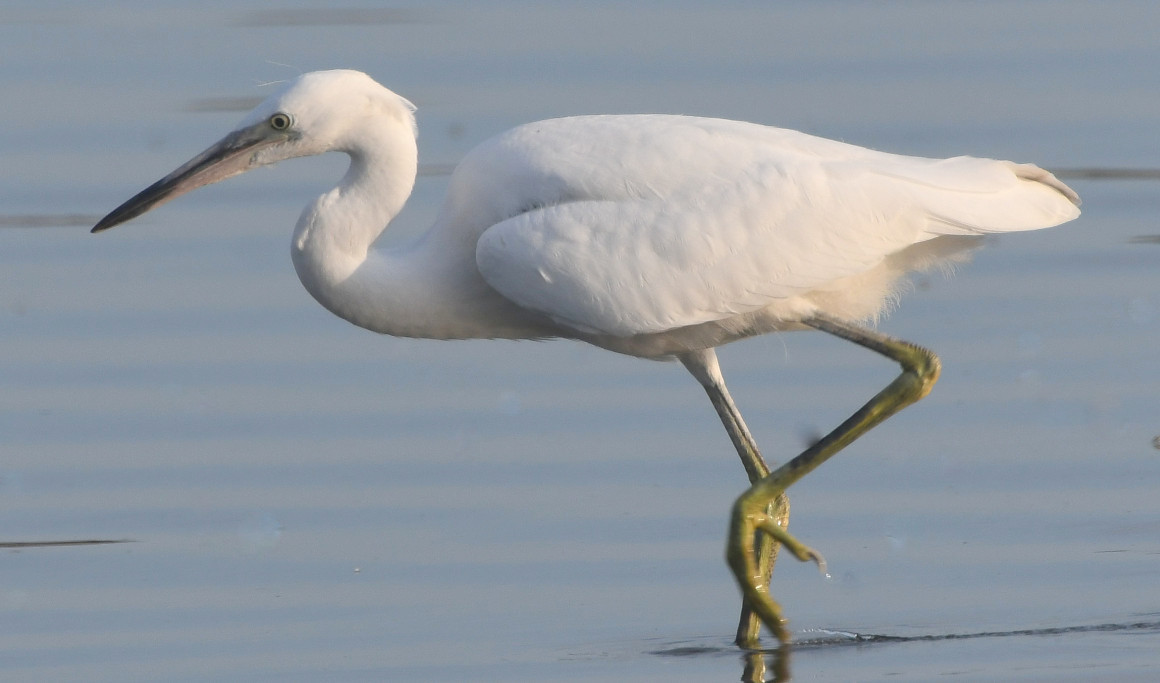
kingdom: Animalia
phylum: Chordata
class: Aves
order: Pelecaniformes
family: Ardeidae
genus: Egretta
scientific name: Egretta gularis
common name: Western reef-heron
